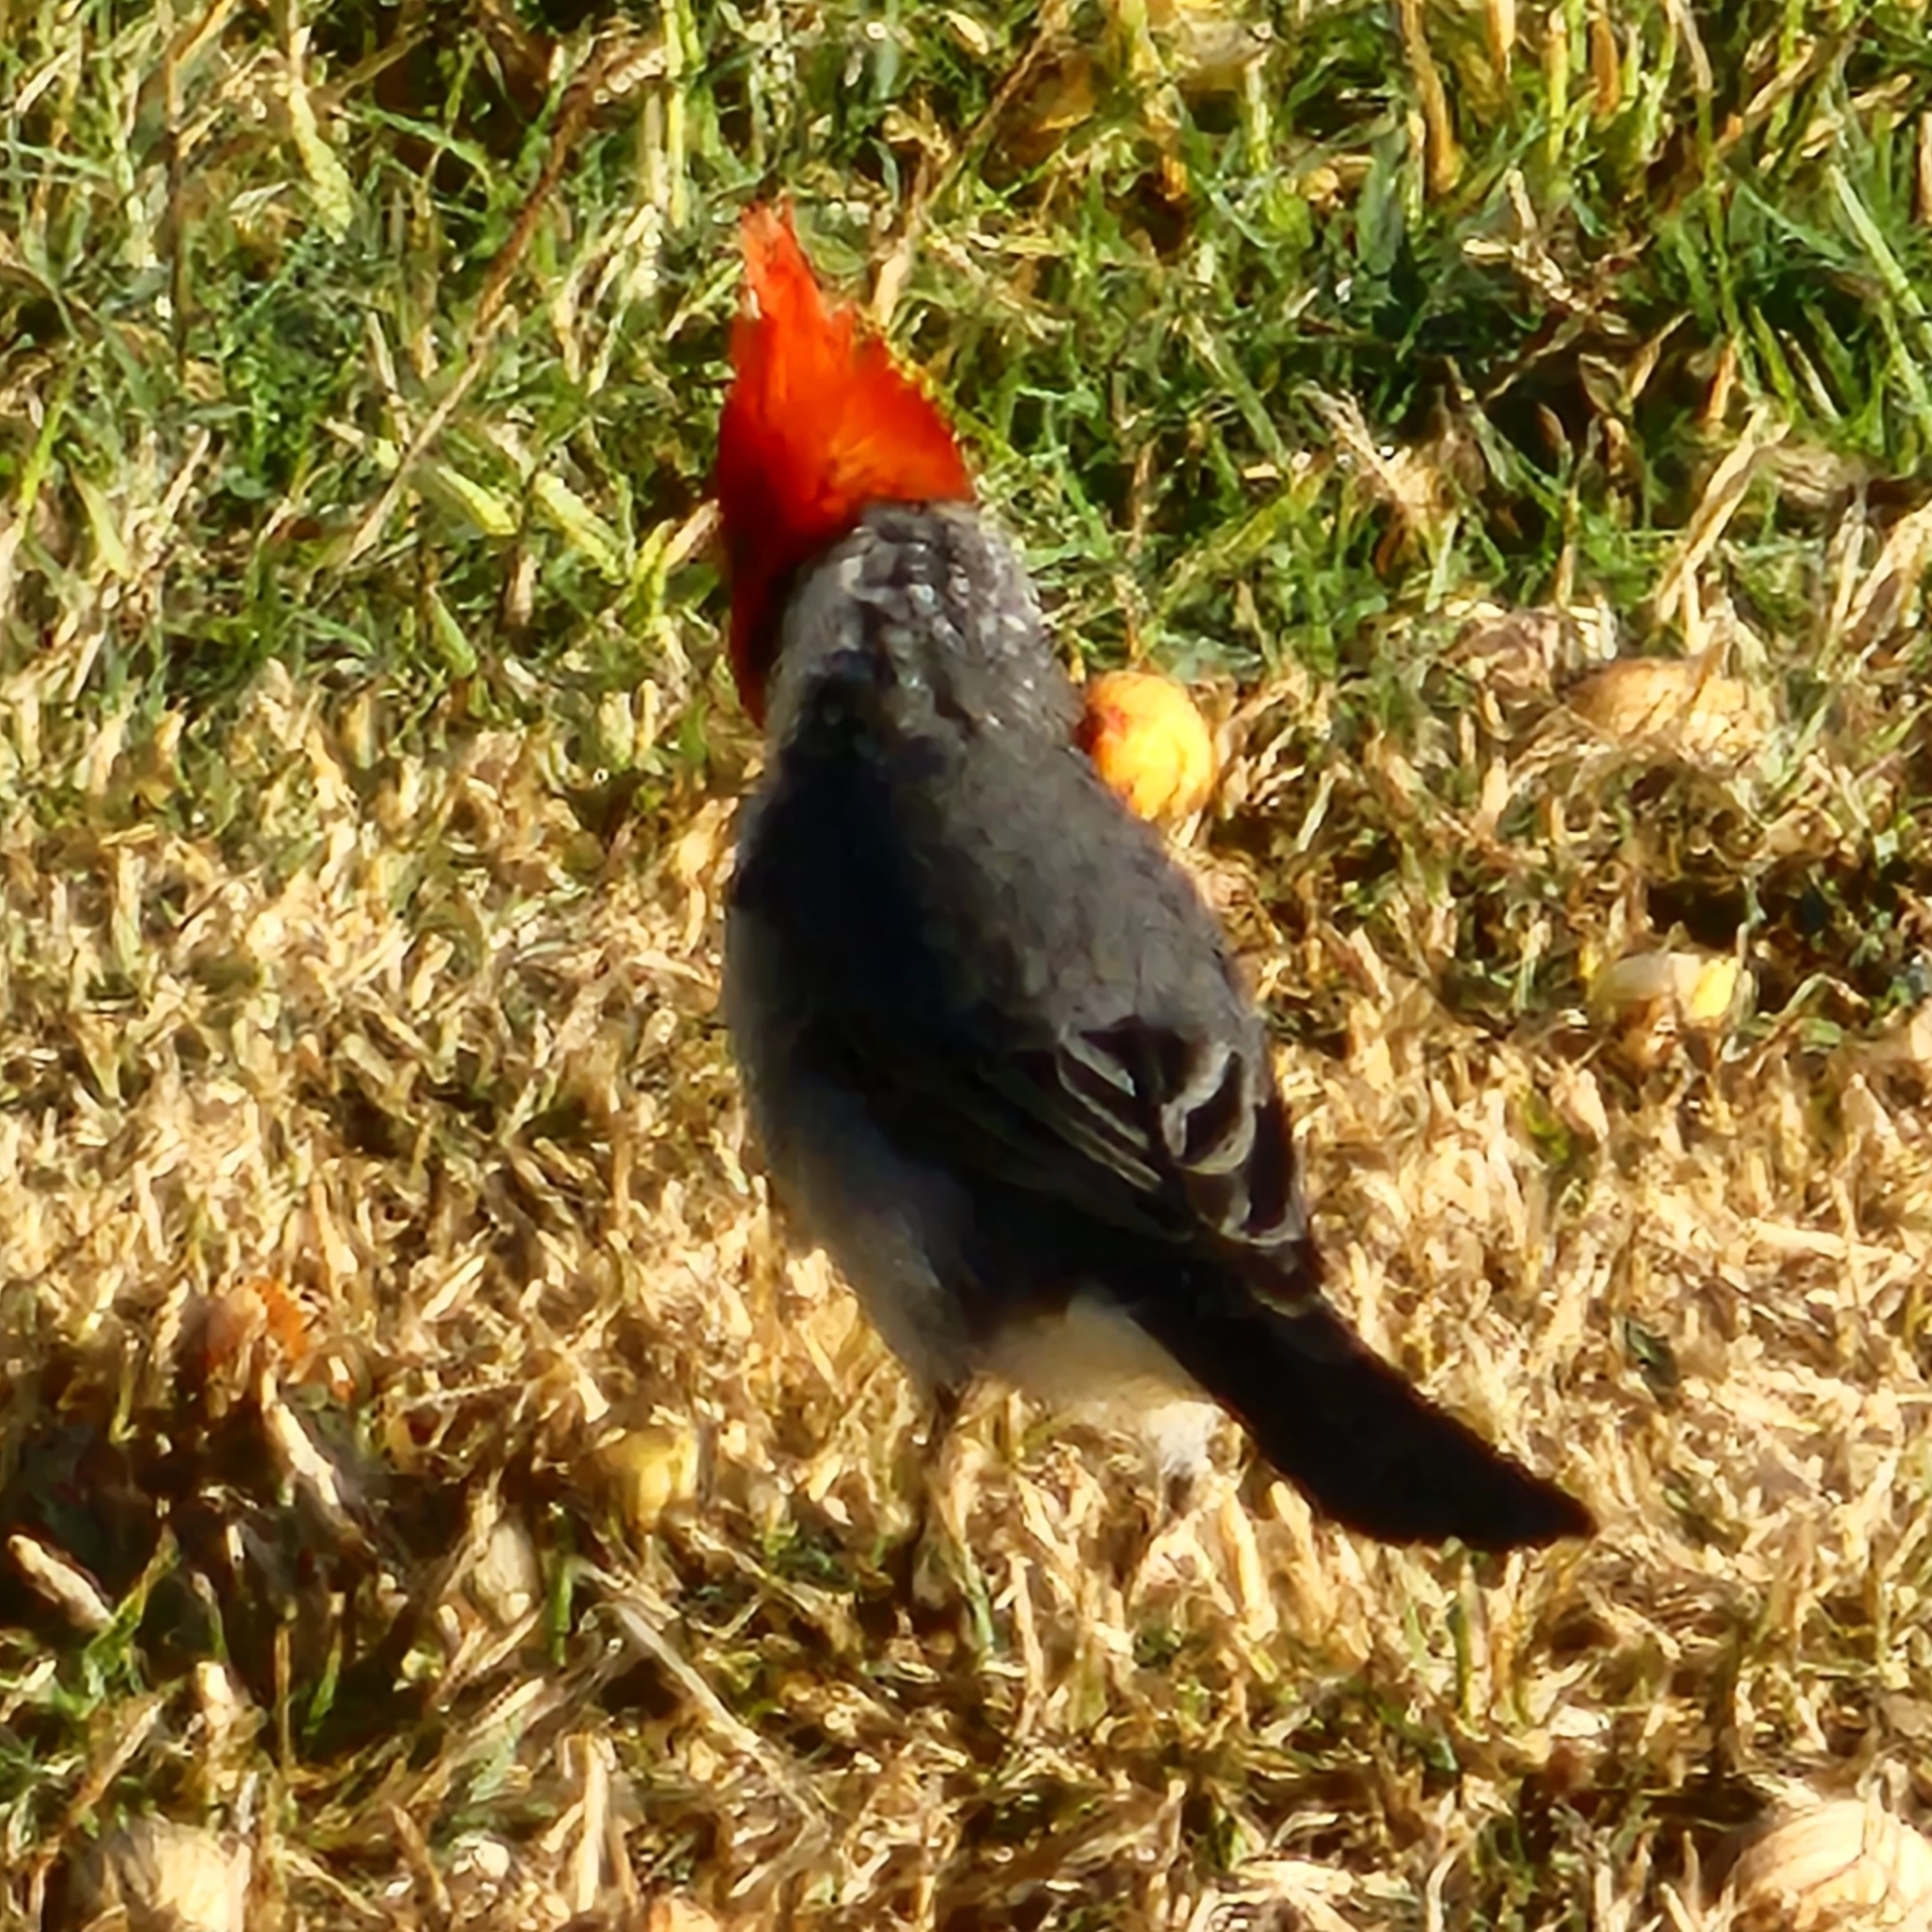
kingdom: Animalia
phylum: Chordata
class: Aves
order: Passeriformes
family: Thraupidae
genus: Paroaria
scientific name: Paroaria coronata
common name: Red-crested cardinal
